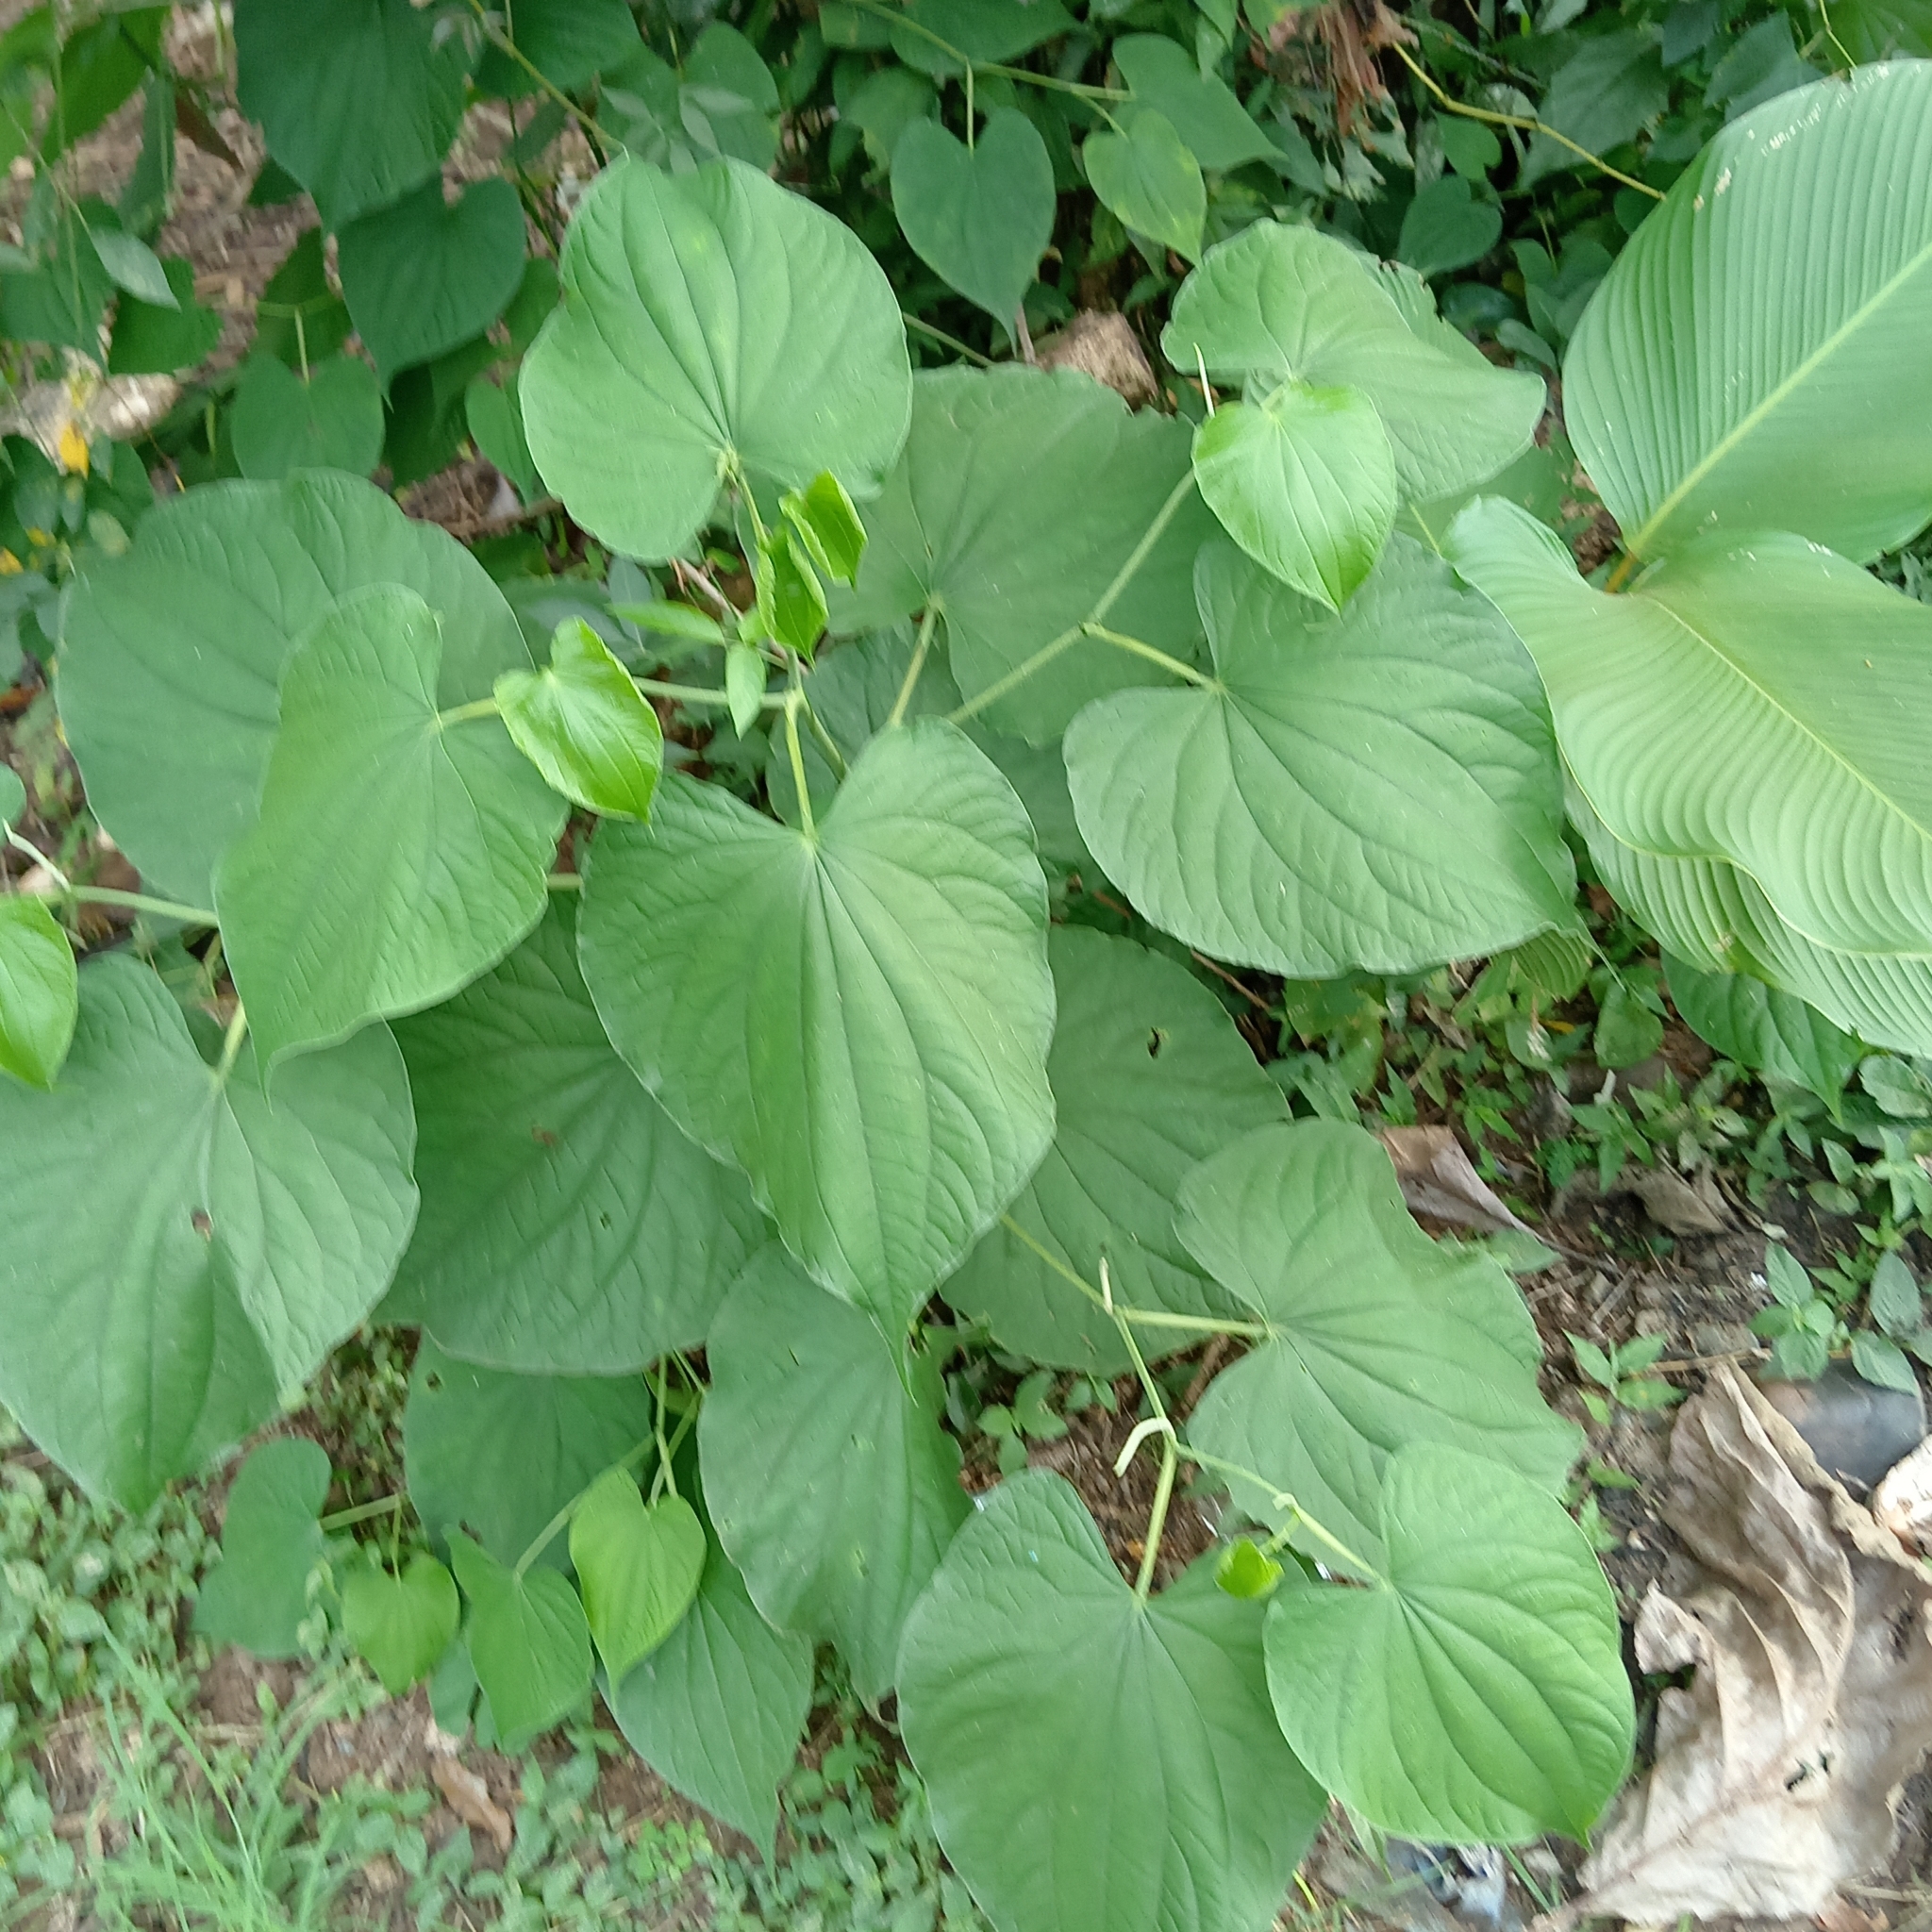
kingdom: Plantae
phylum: Tracheophyta
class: Magnoliopsida
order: Piperales
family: Piperaceae
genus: Piper
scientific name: Piper marginatum
